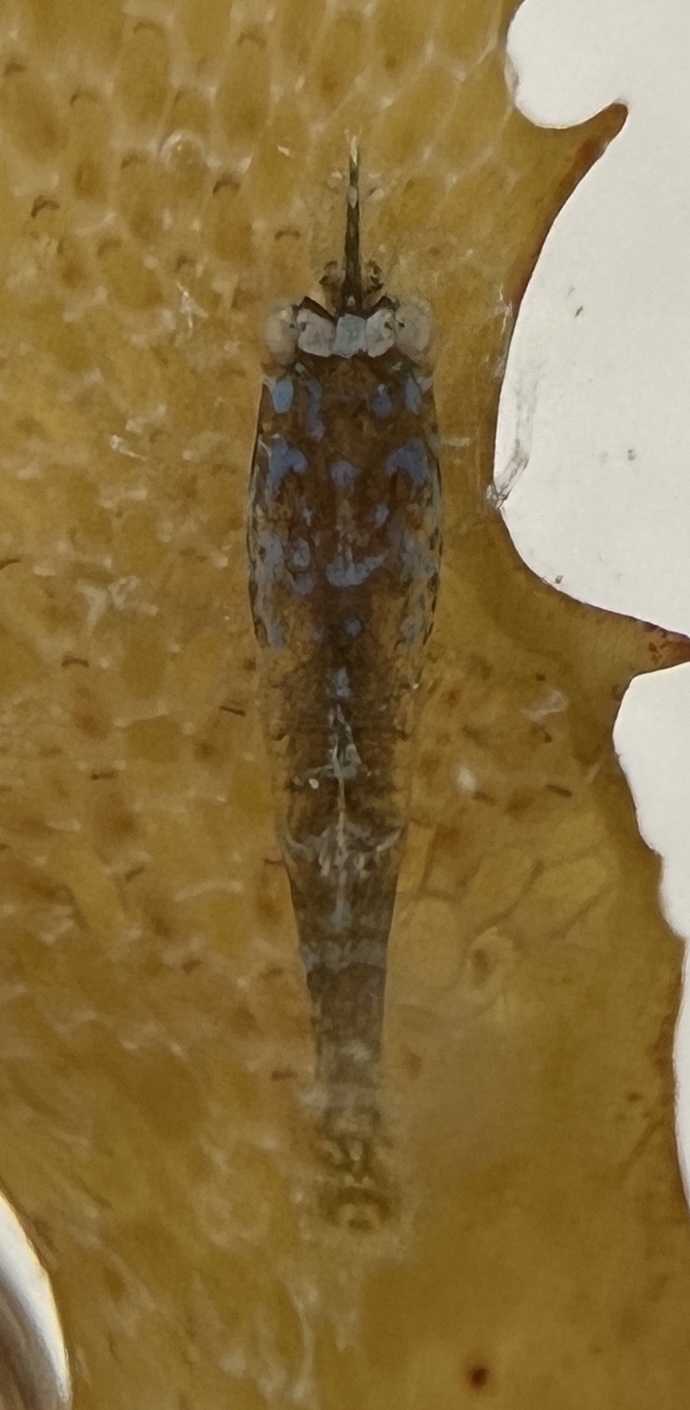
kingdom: Animalia
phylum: Arthropoda
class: Malacostraca
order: Decapoda
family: Hippolytidae
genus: Latreutes
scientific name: Latreutes fucorum
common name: Slender sargassum shrimp
